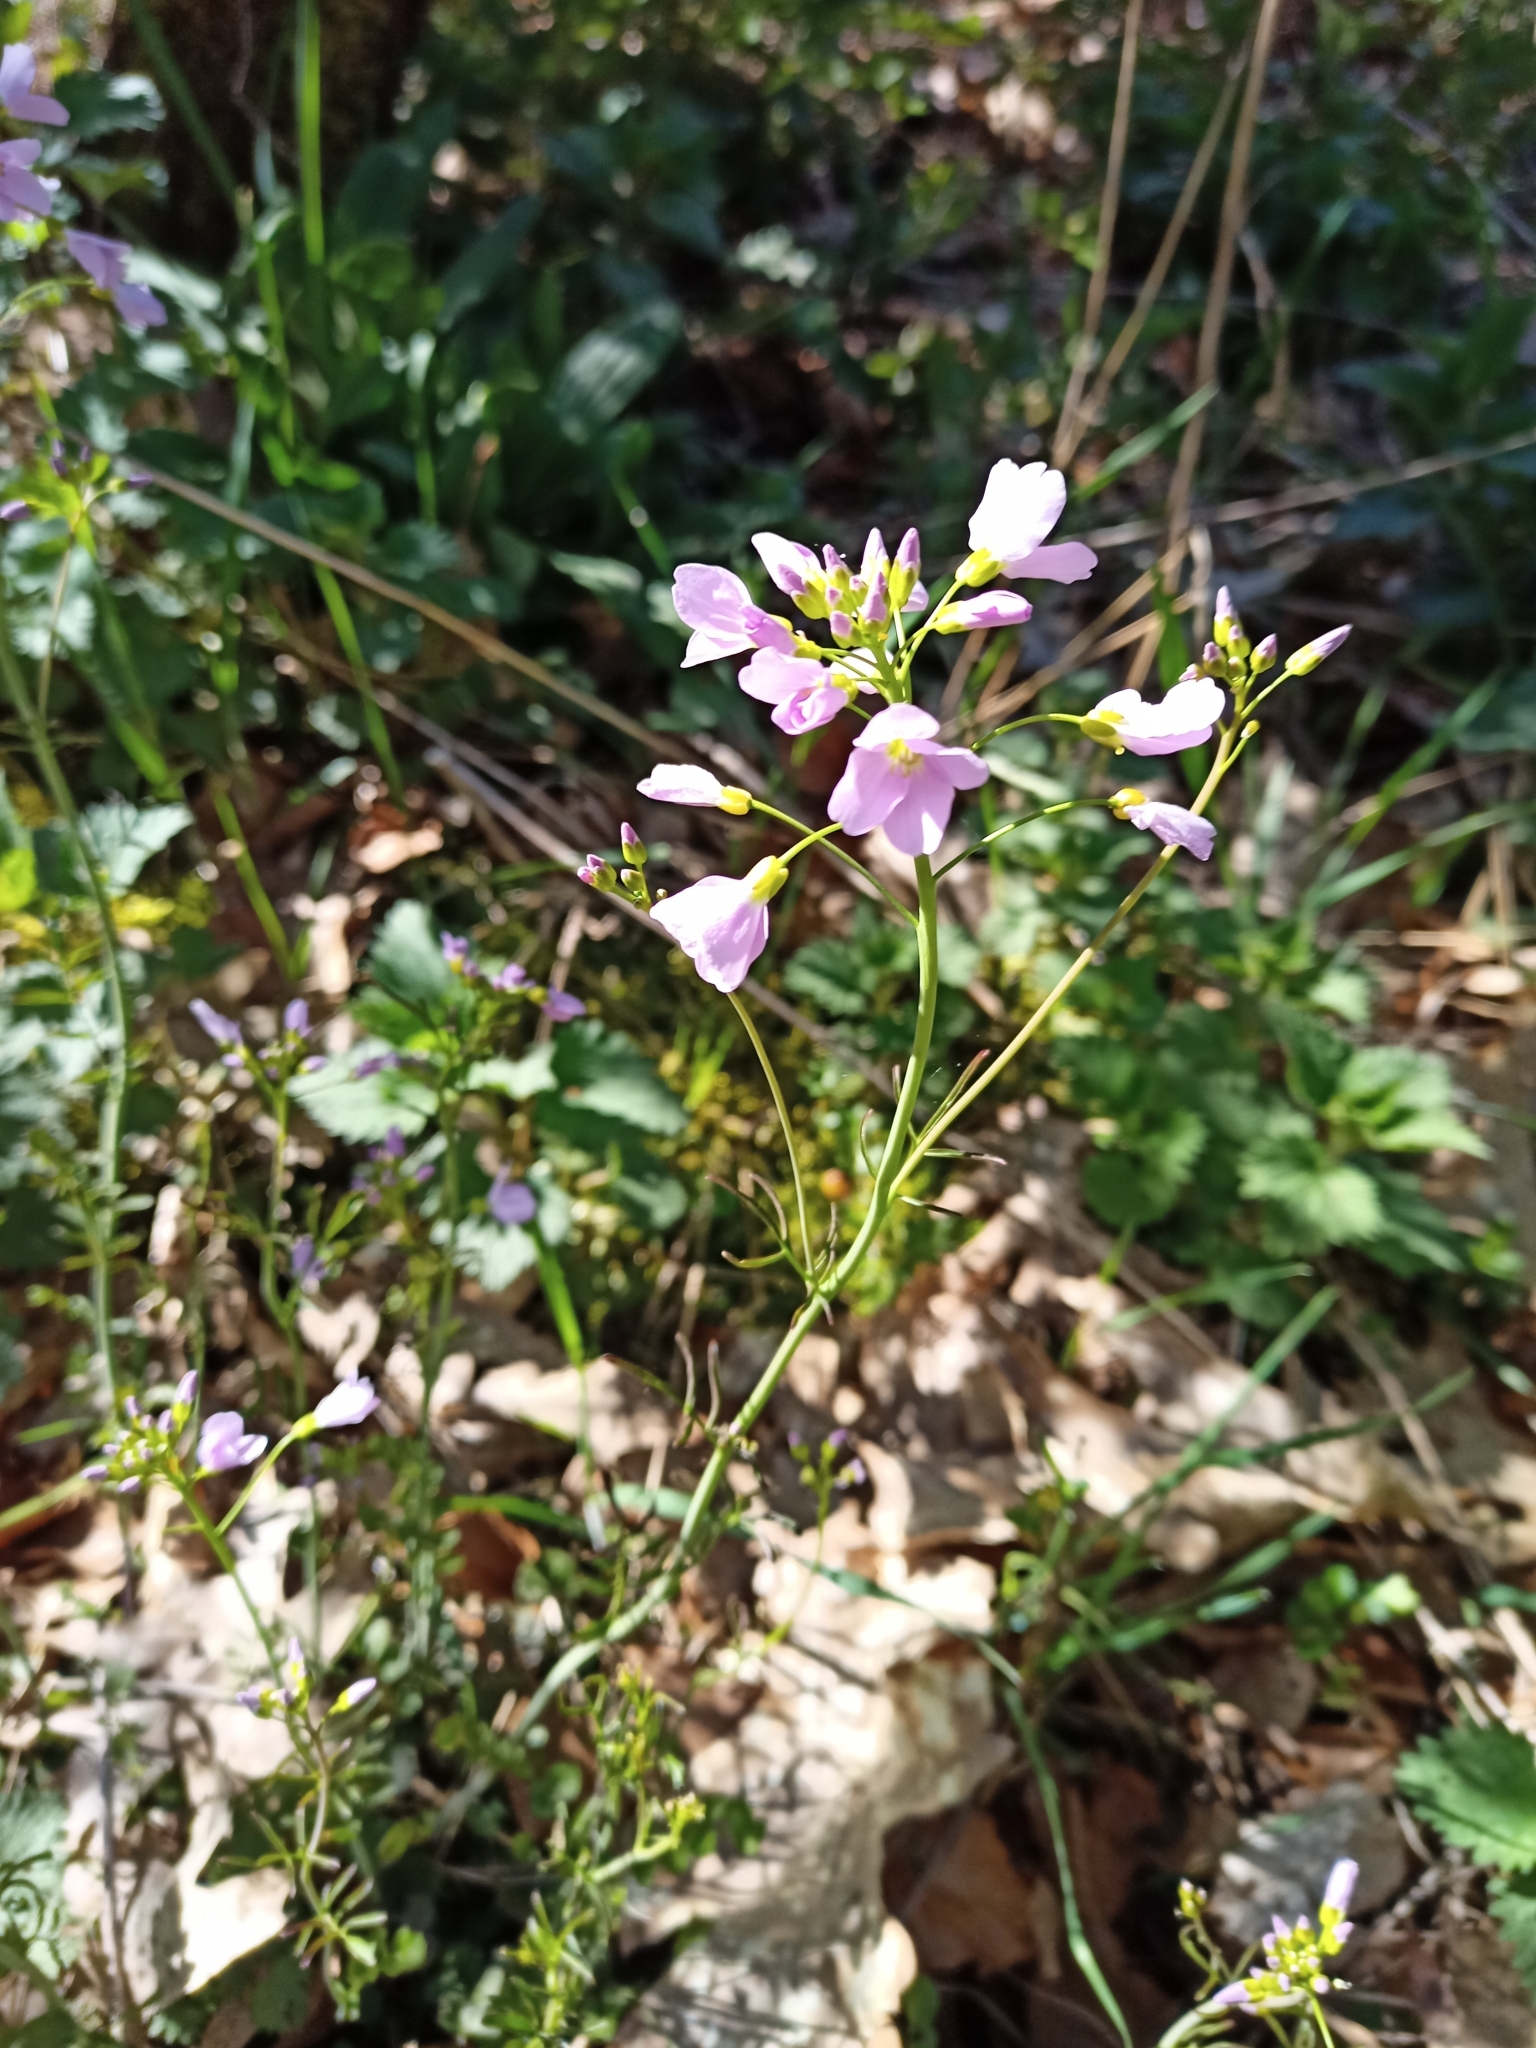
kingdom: Plantae
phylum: Tracheophyta
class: Magnoliopsida
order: Brassicales
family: Brassicaceae
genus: Cardamine
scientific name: Cardamine pratensis
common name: Cuckoo flower
